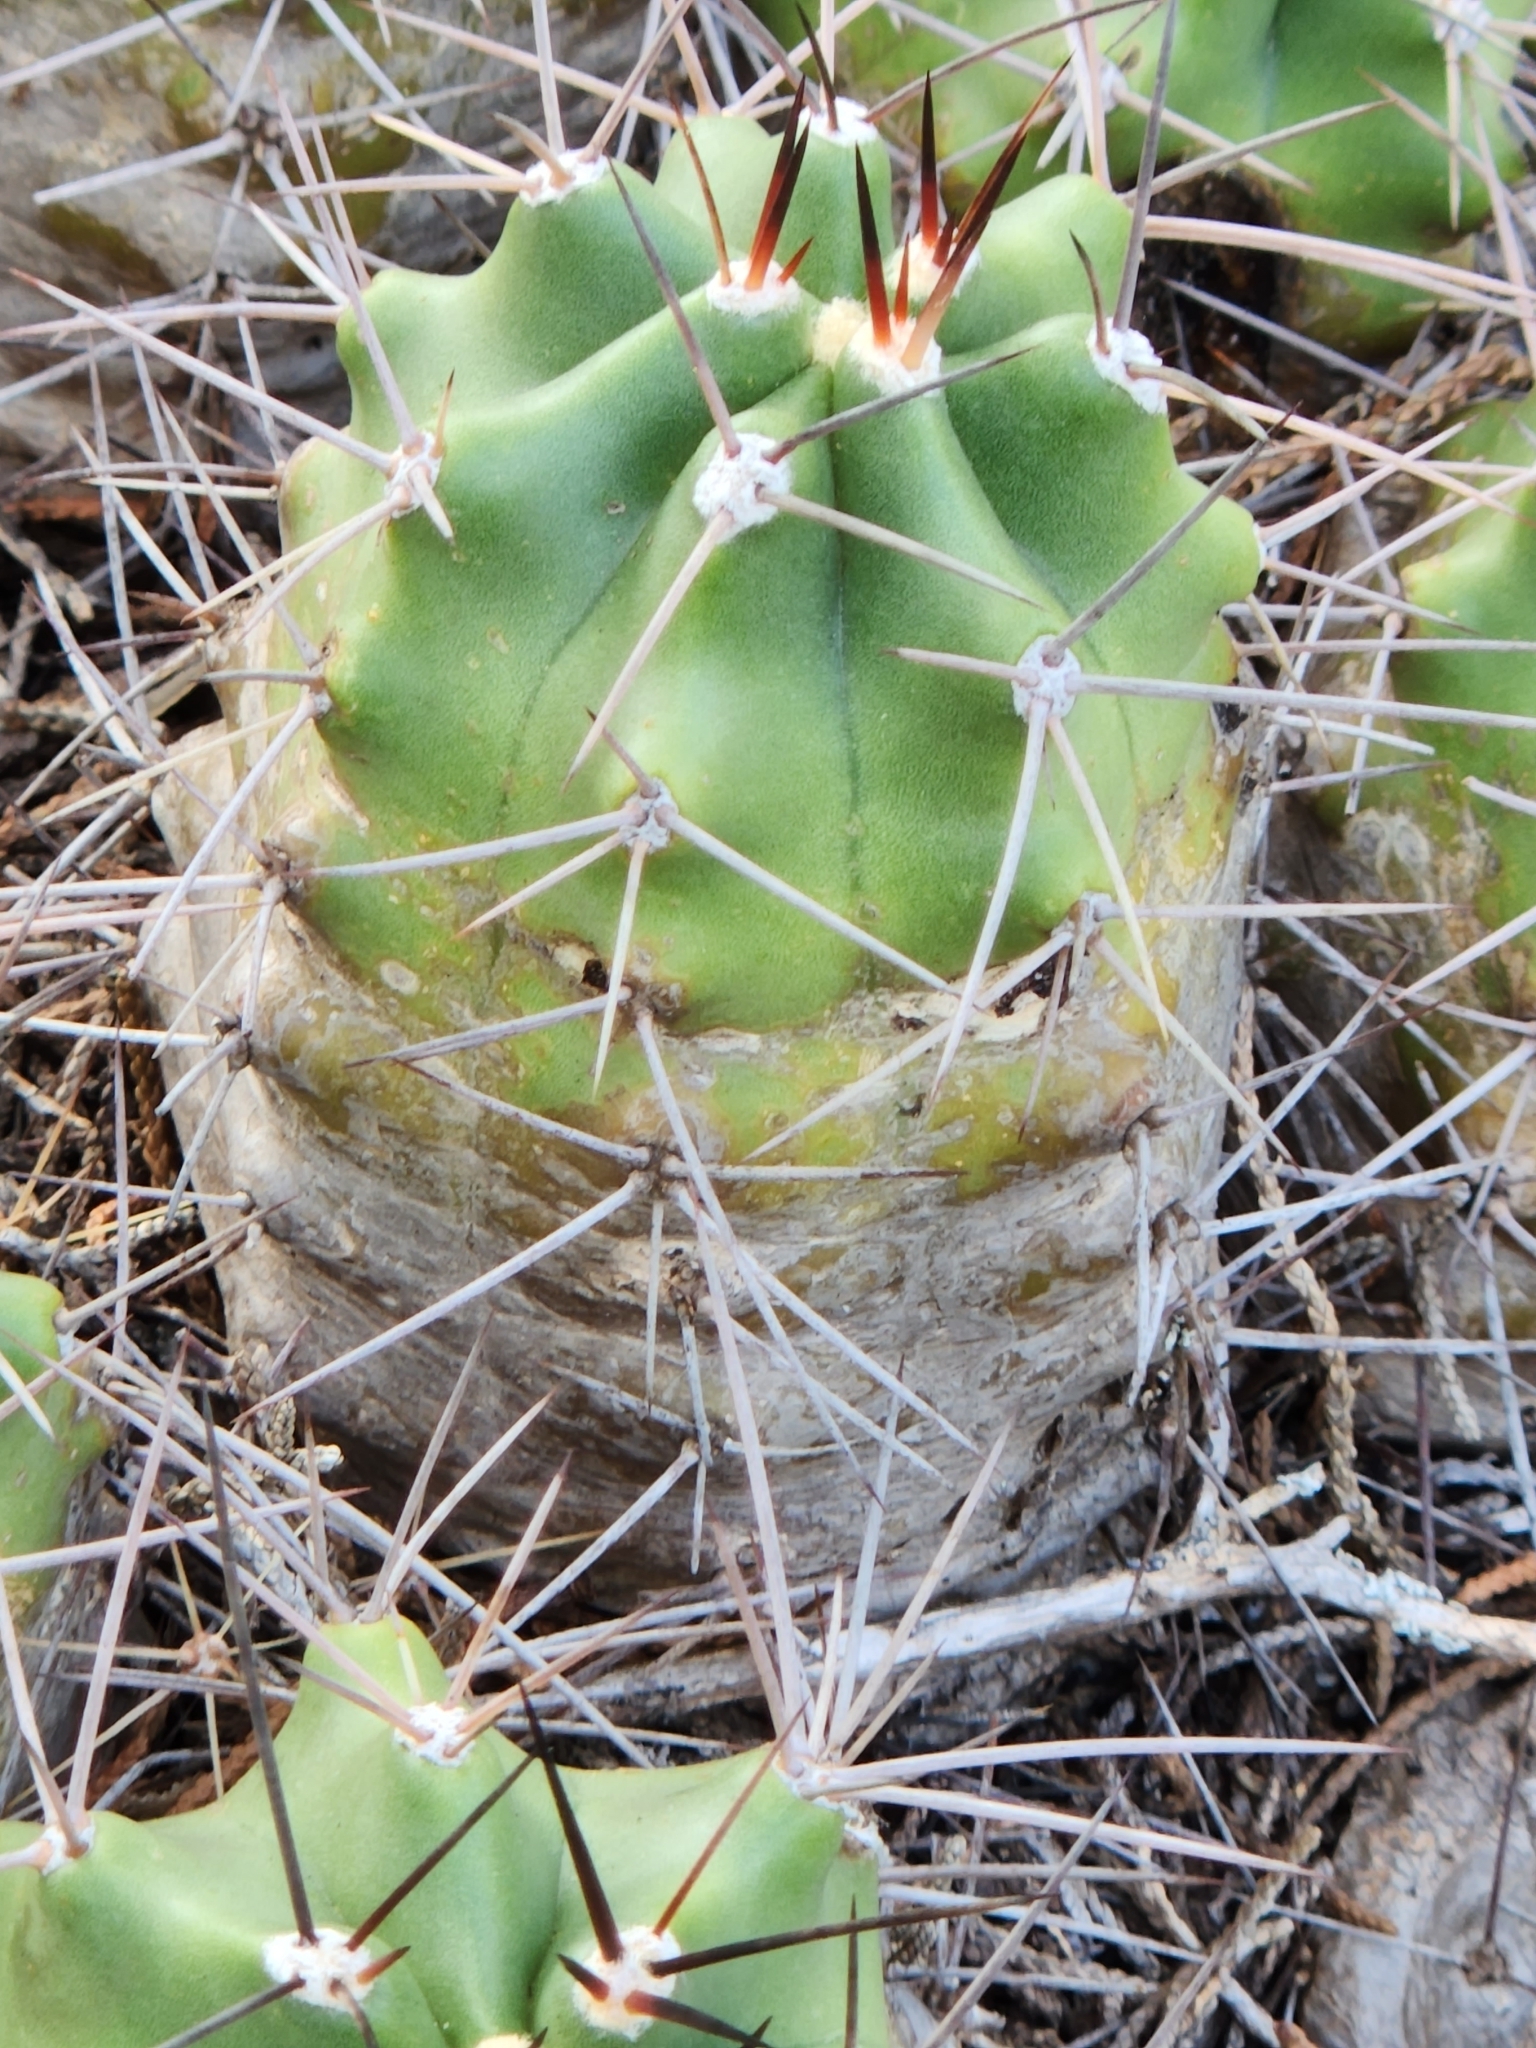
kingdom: Plantae
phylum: Tracheophyta
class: Magnoliopsida
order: Caryophyllales
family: Cactaceae
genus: Echinocereus
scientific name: Echinocereus coccineus
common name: Scarlet hedgehog cactus
